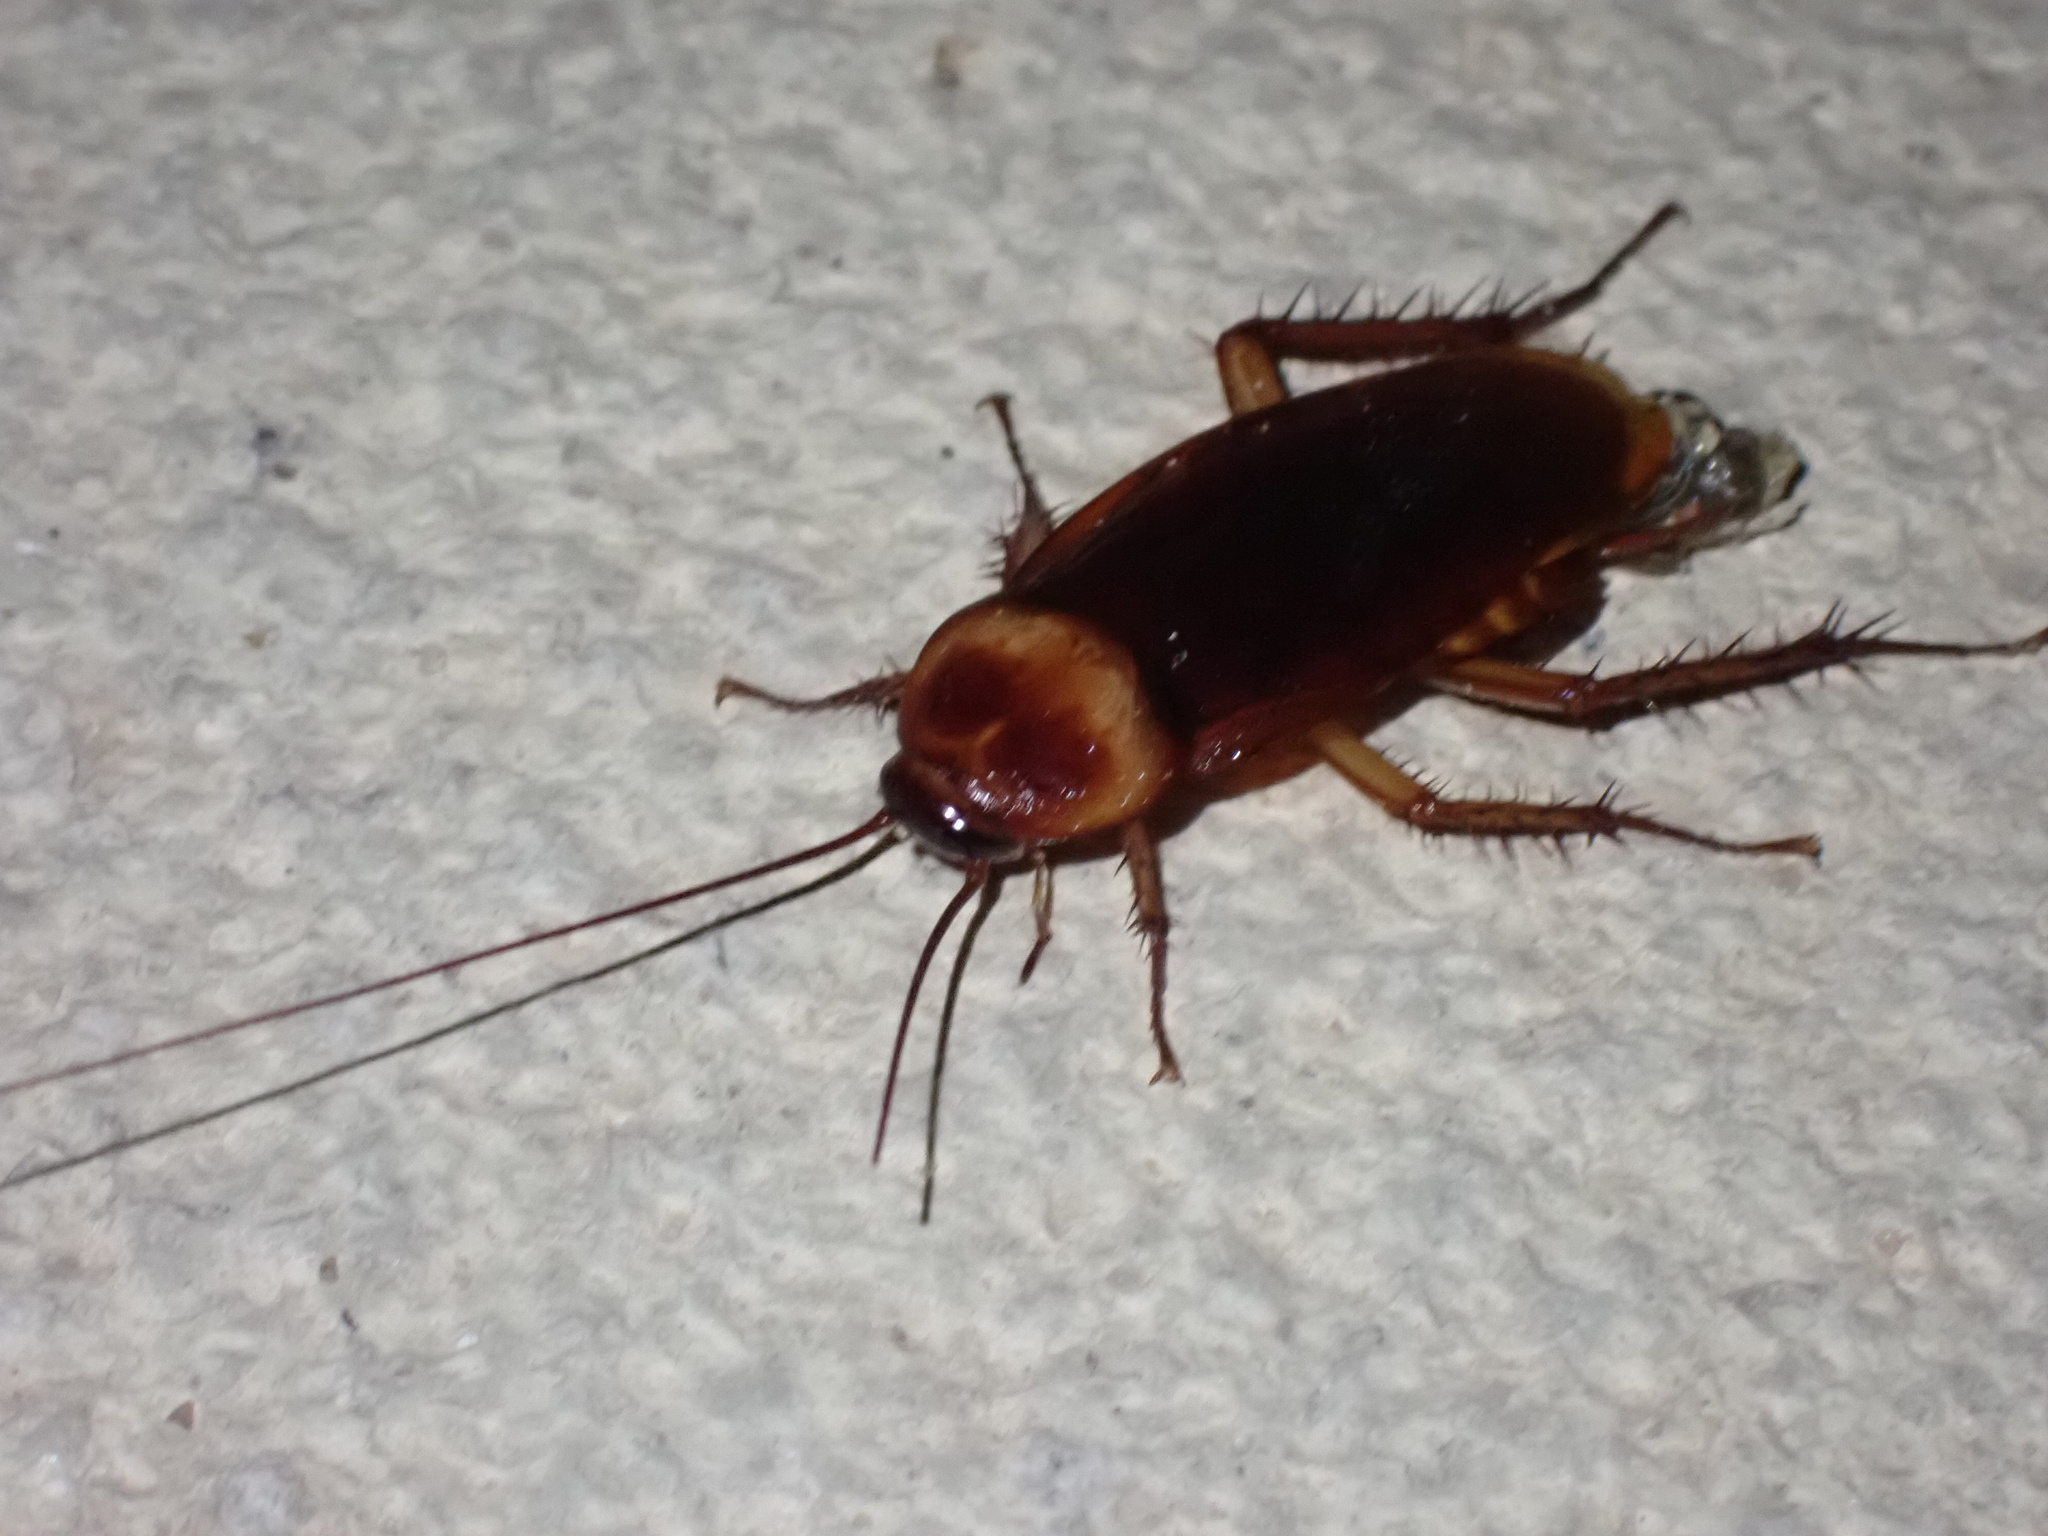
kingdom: Animalia
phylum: Arthropoda
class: Insecta
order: Blattodea
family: Blattidae
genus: Periplaneta
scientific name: Periplaneta americana
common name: American cockroach
